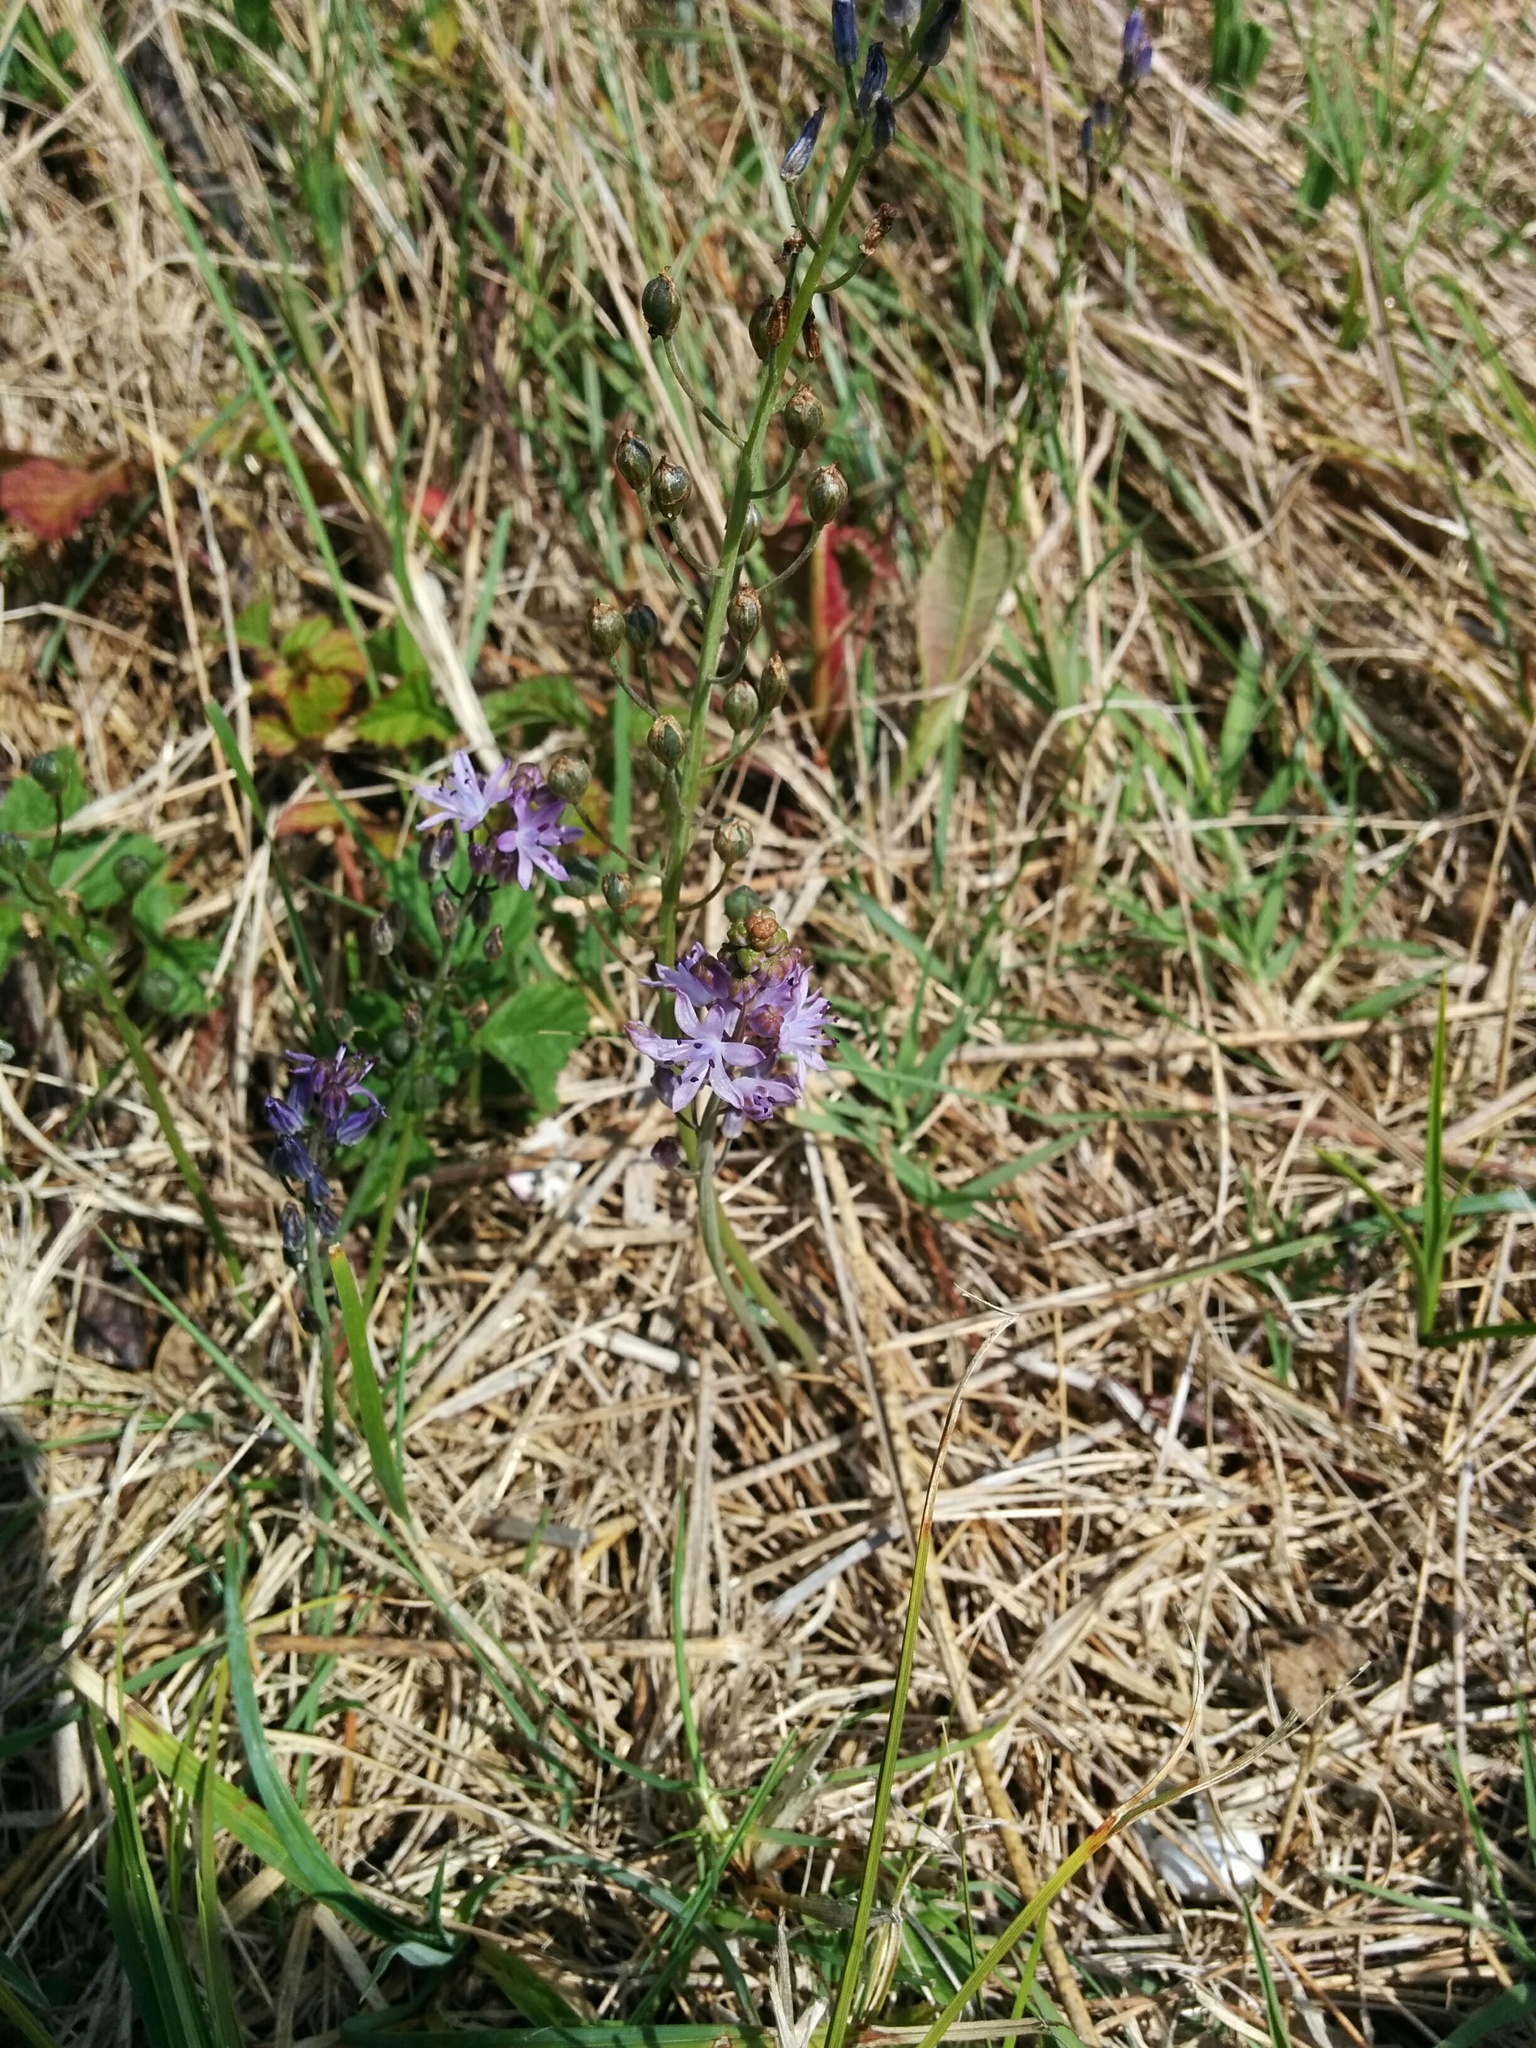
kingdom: Plantae
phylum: Tracheophyta
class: Liliopsida
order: Asparagales
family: Asparagaceae
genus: Prospero
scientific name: Prospero autumnale
